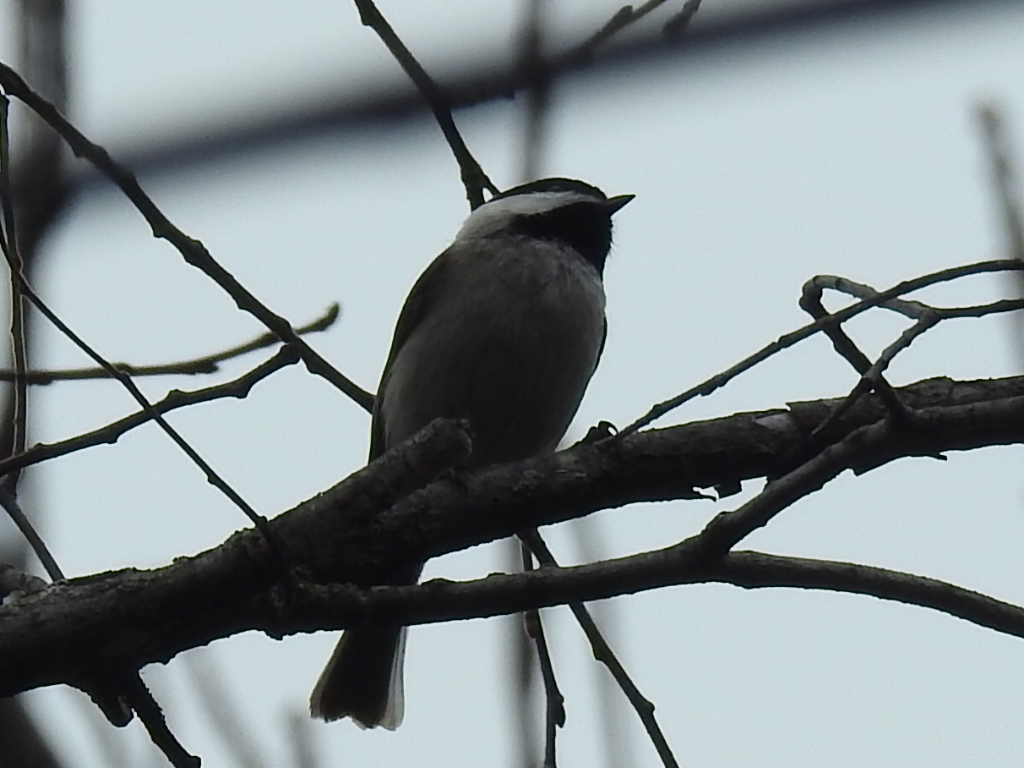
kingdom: Animalia
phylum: Chordata
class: Aves
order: Passeriformes
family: Paridae
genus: Poecile
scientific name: Poecile carolinensis
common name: Carolina chickadee
